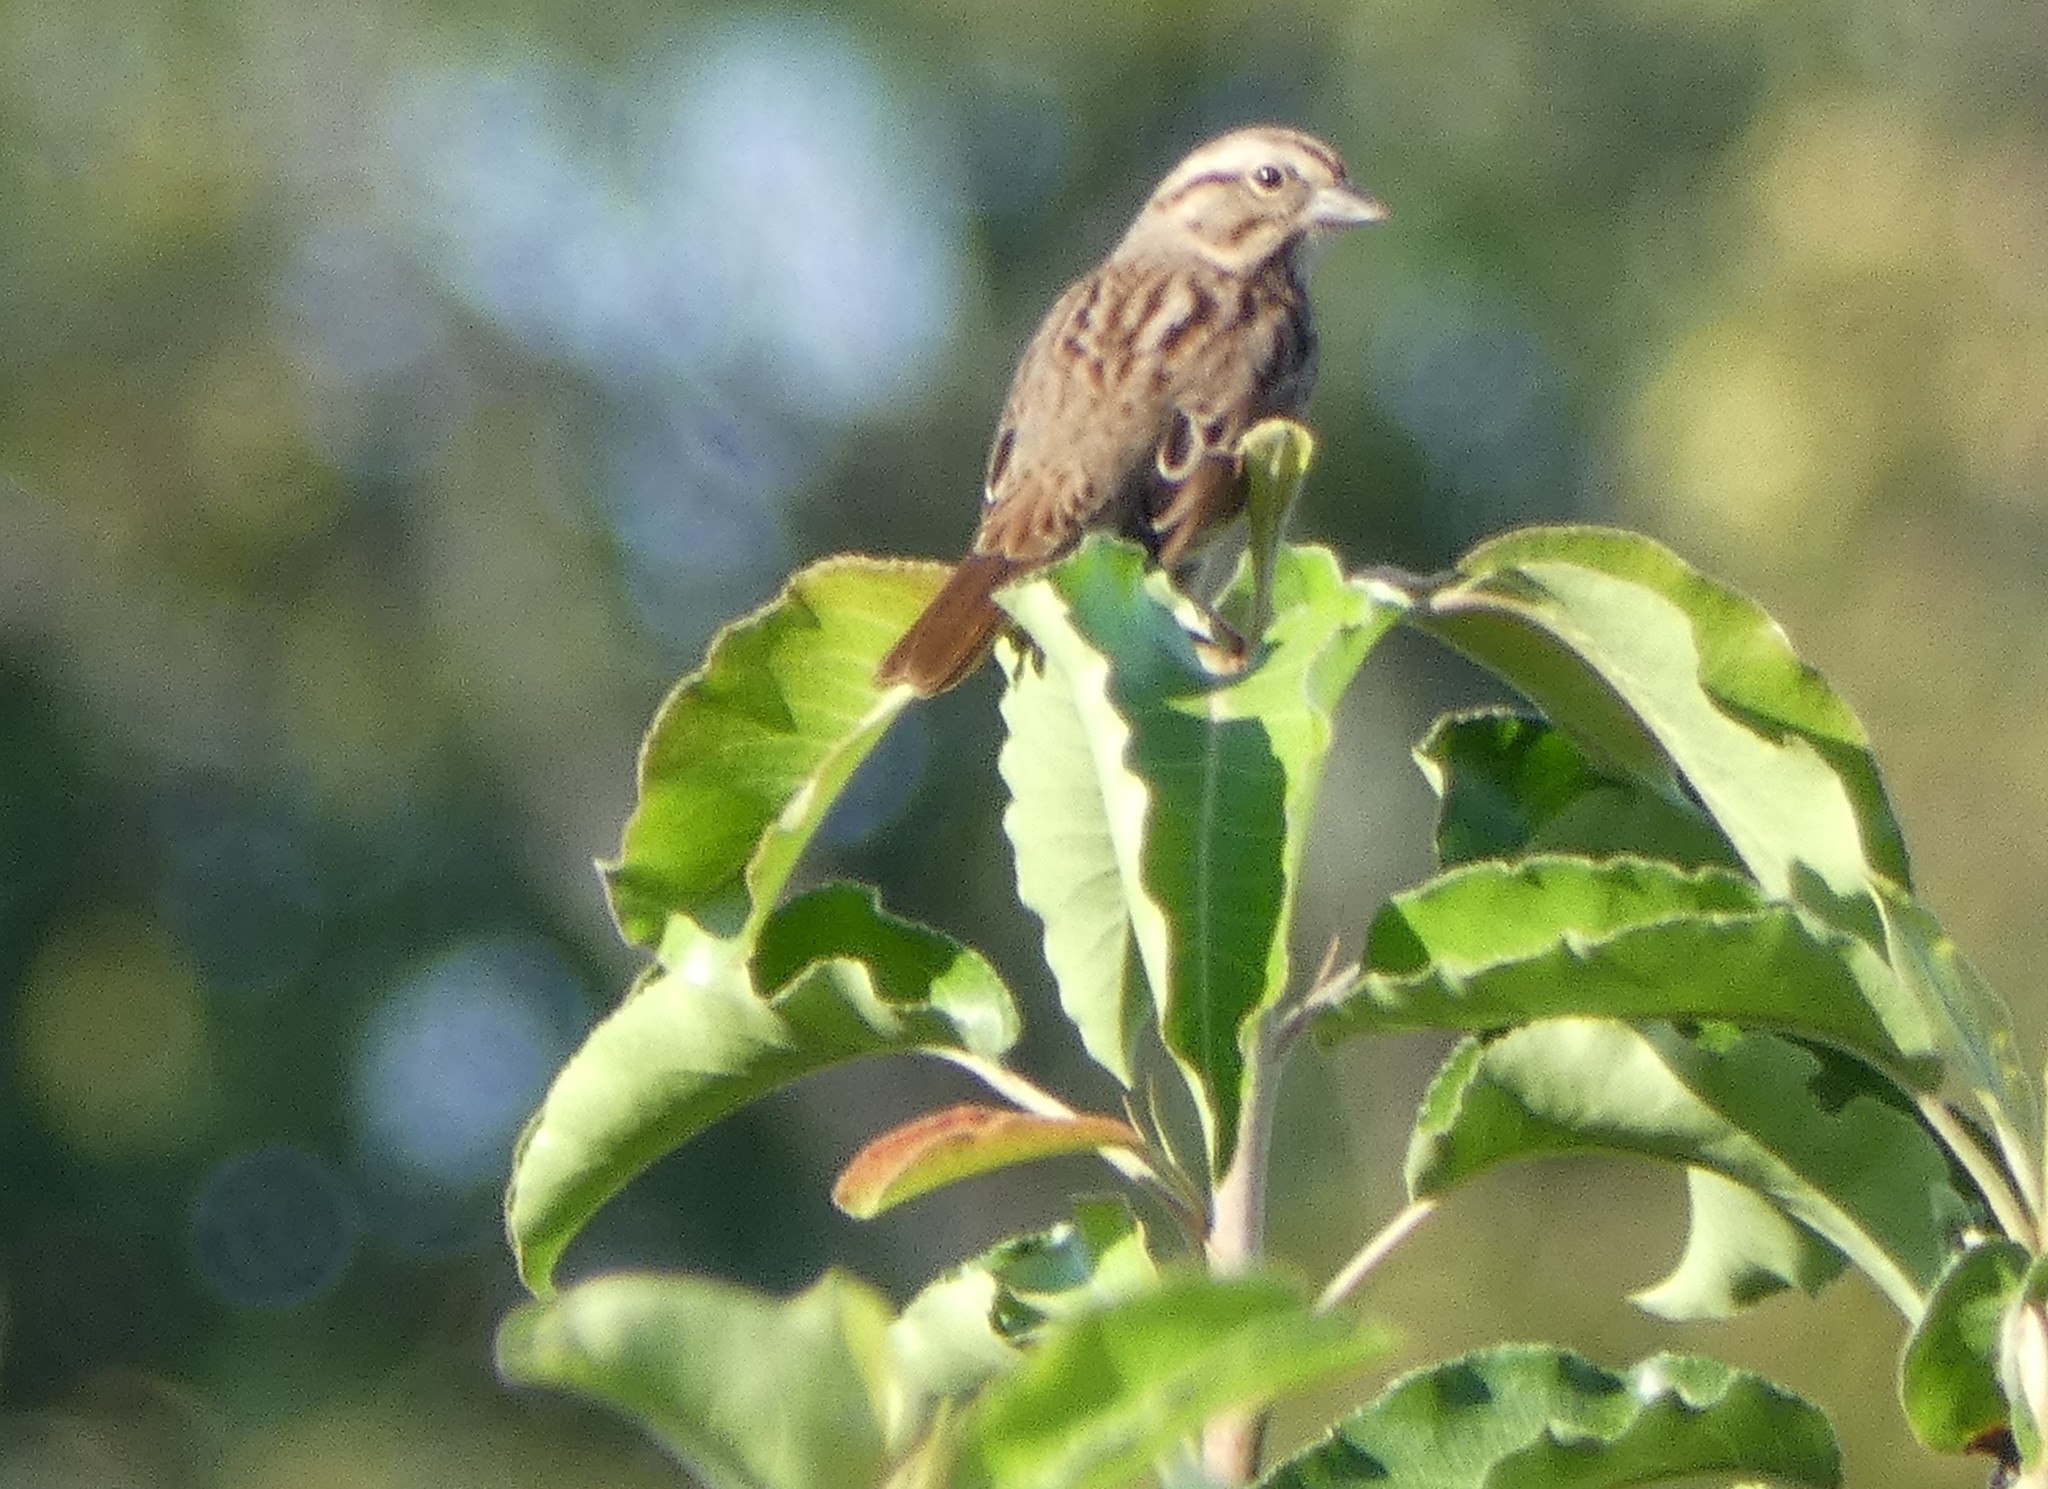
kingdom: Animalia
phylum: Chordata
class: Aves
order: Passeriformes
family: Passerellidae
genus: Melospiza
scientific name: Melospiza melodia
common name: Song sparrow
